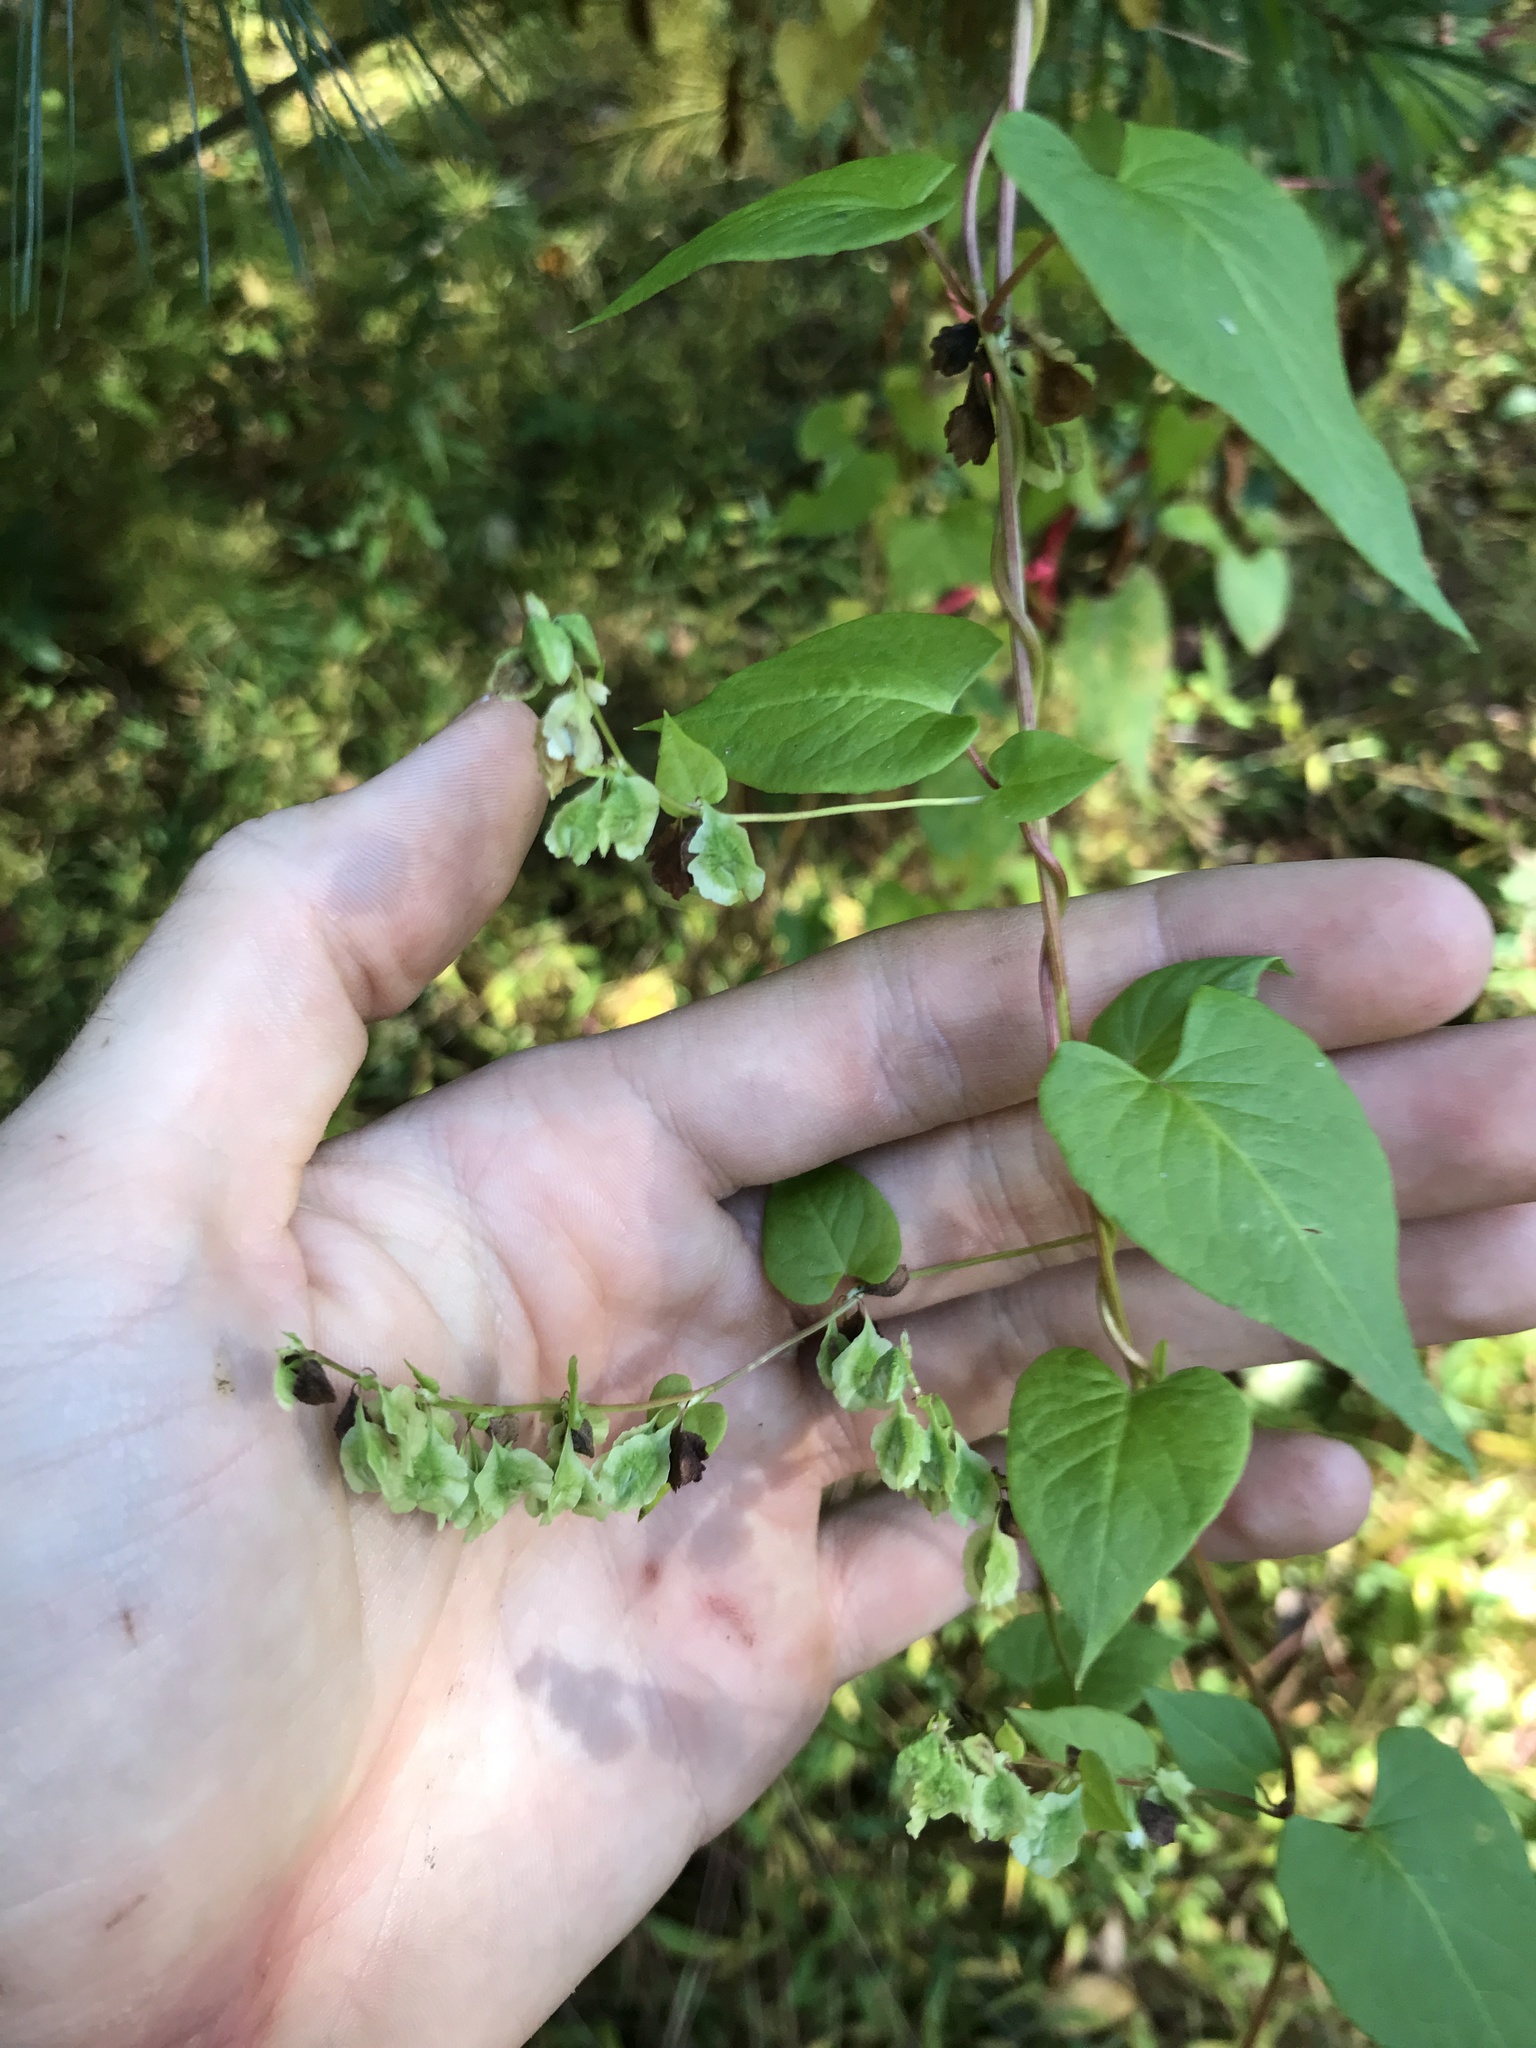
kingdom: Plantae
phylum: Tracheophyta
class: Magnoliopsida
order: Caryophyllales
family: Polygonaceae
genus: Fallopia
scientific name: Fallopia scandens
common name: Climbing false buckwheat
